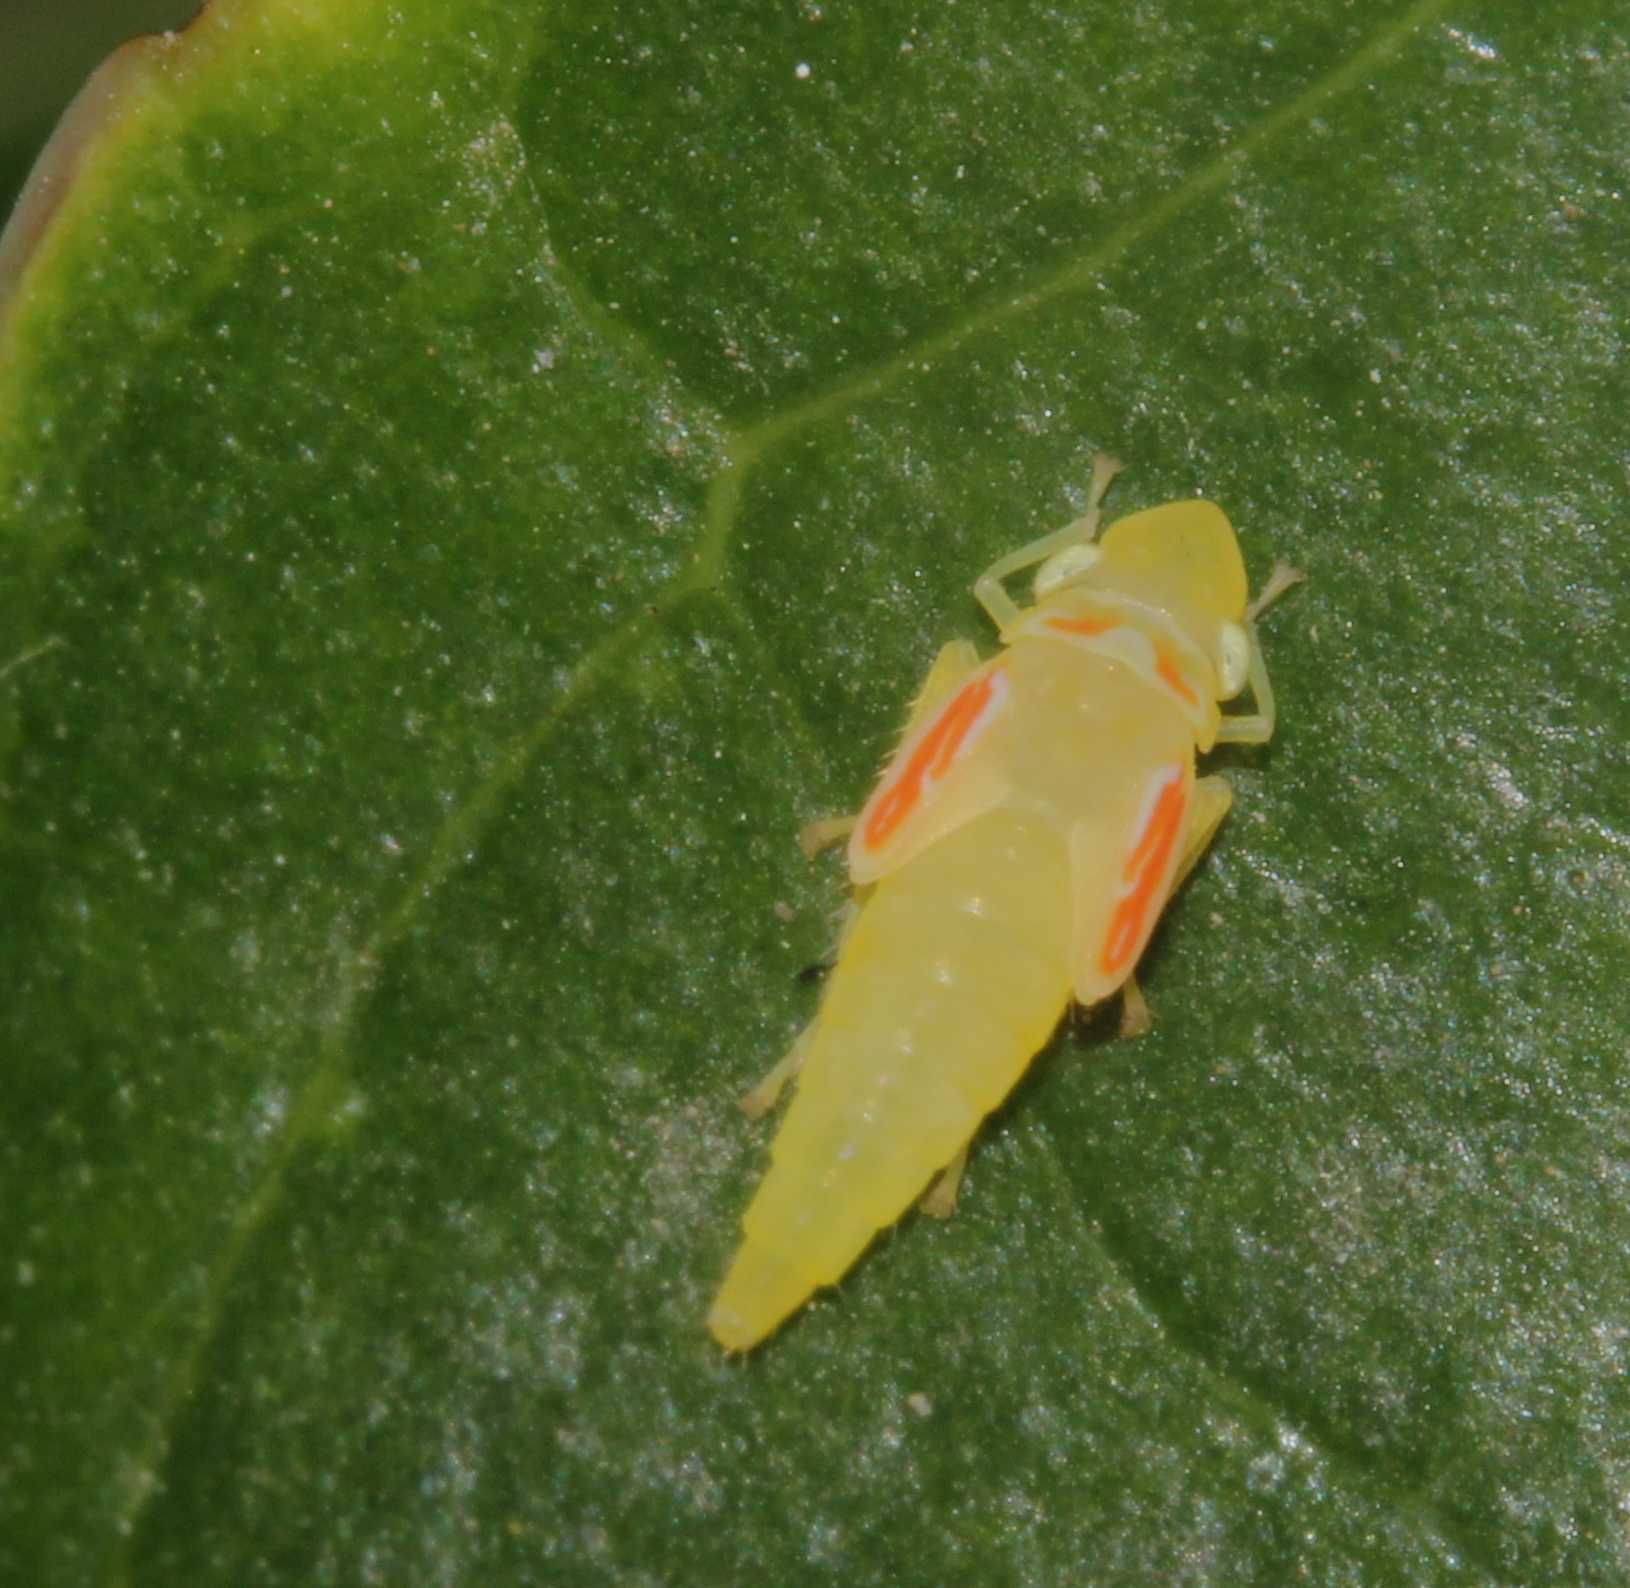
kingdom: Animalia
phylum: Arthropoda
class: Insecta
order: Hemiptera
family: Cicadellidae
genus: Graphocephala
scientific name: Graphocephala
